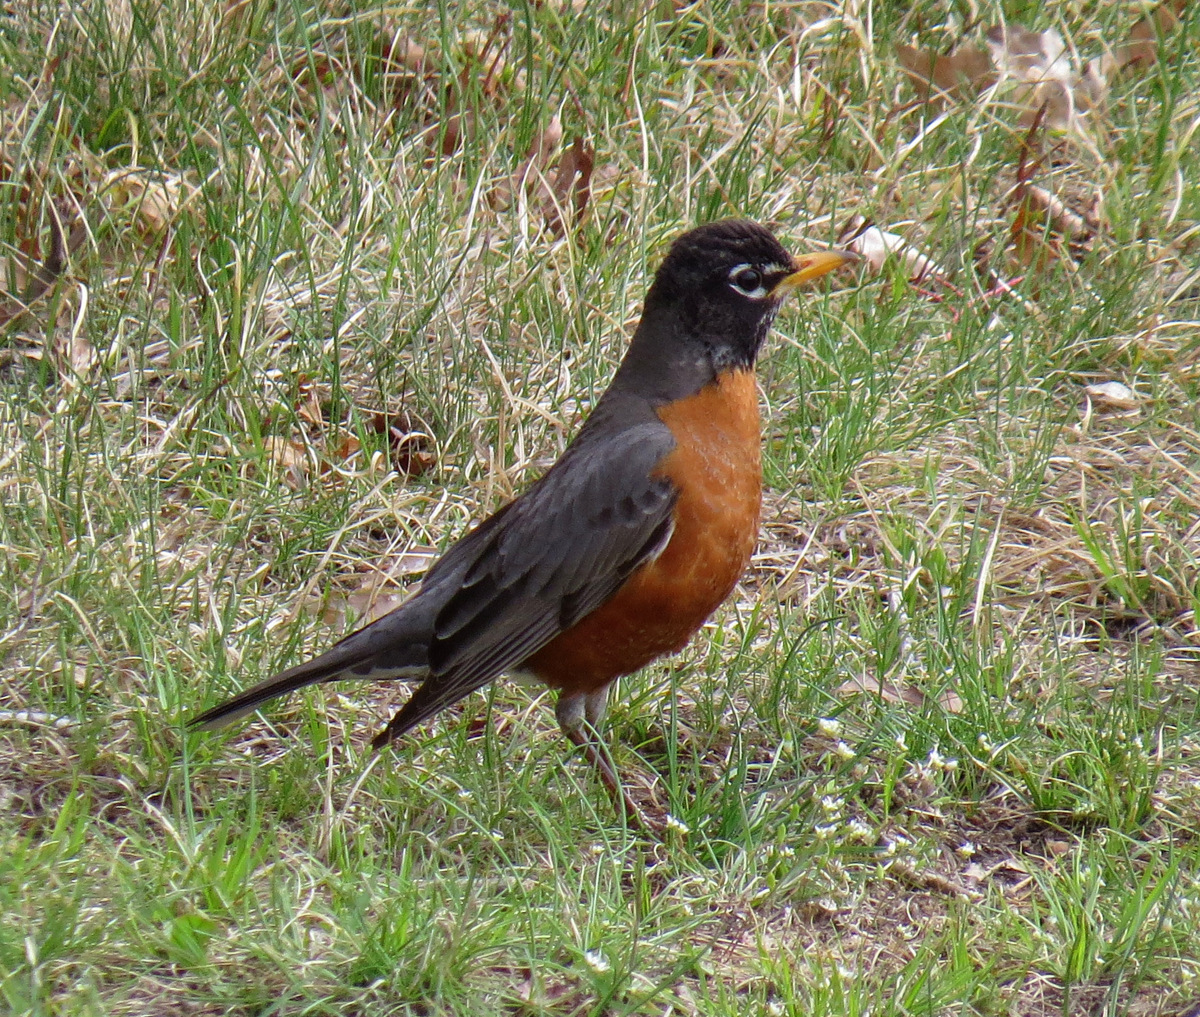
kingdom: Animalia
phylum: Chordata
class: Aves
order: Passeriformes
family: Turdidae
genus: Turdus
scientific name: Turdus migratorius
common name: American robin
